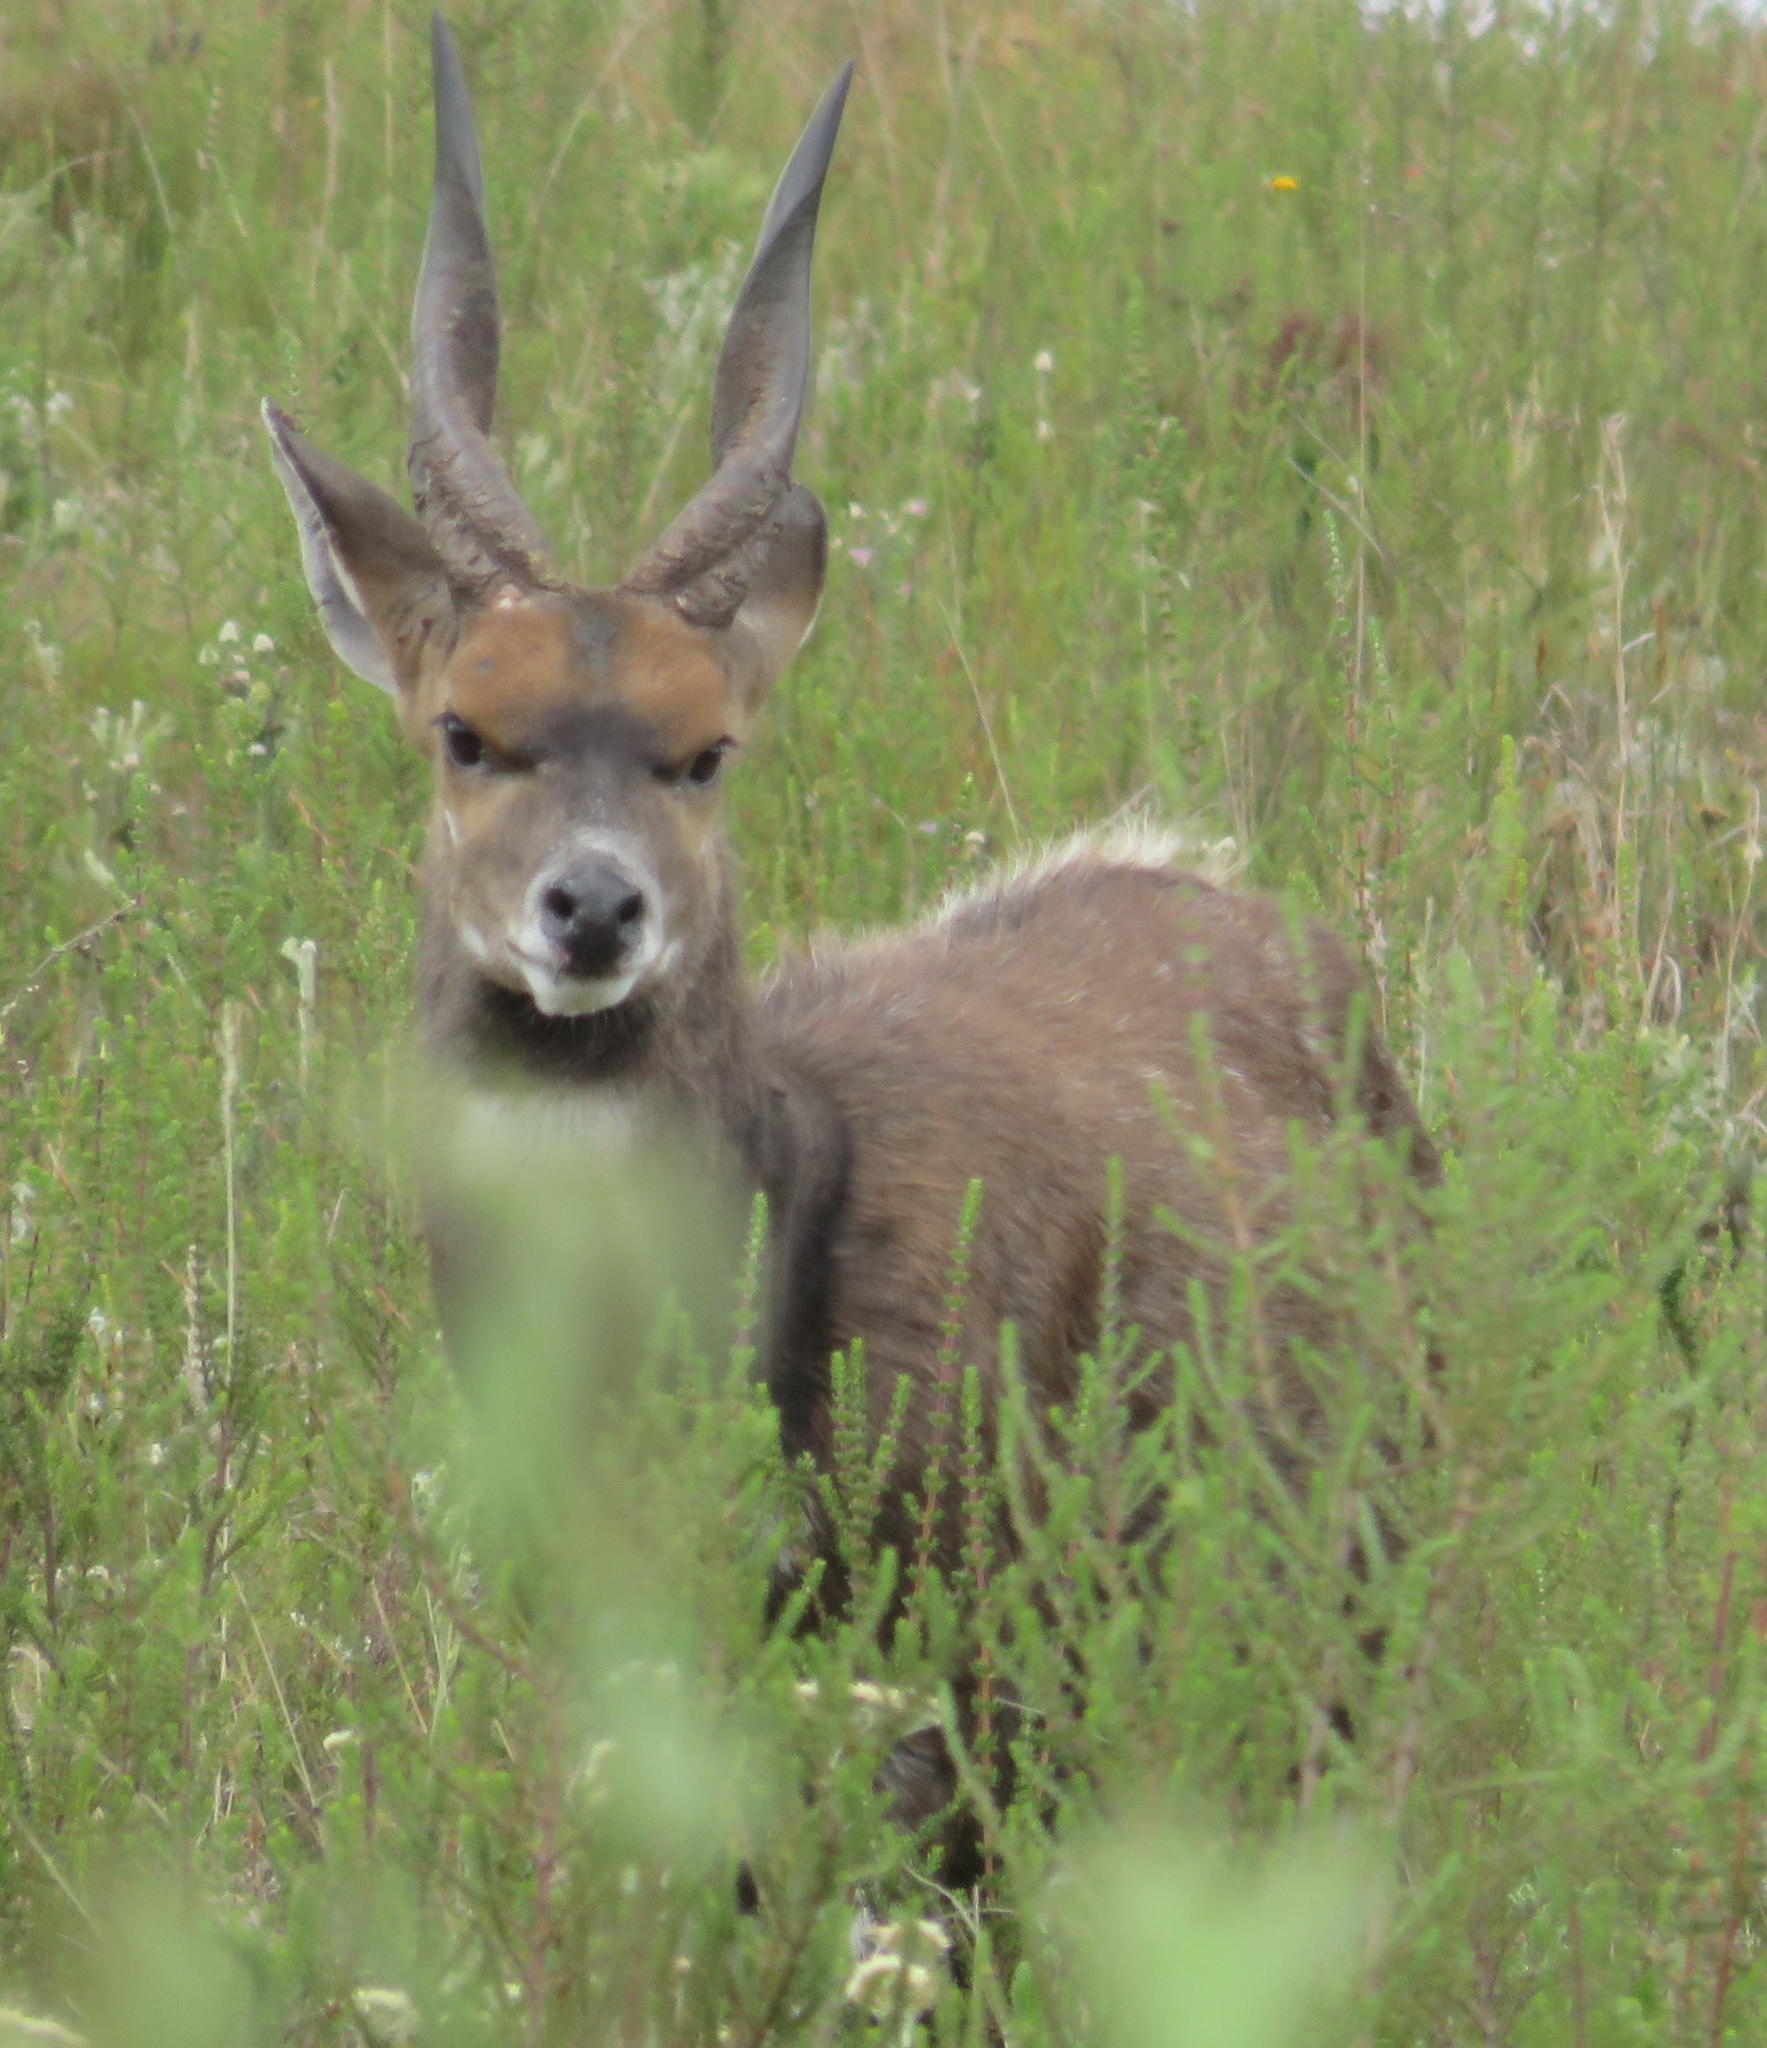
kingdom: Animalia
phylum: Chordata
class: Mammalia
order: Artiodactyla
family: Bovidae
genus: Tragelaphus
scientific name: Tragelaphus scriptus
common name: Bushbuck
